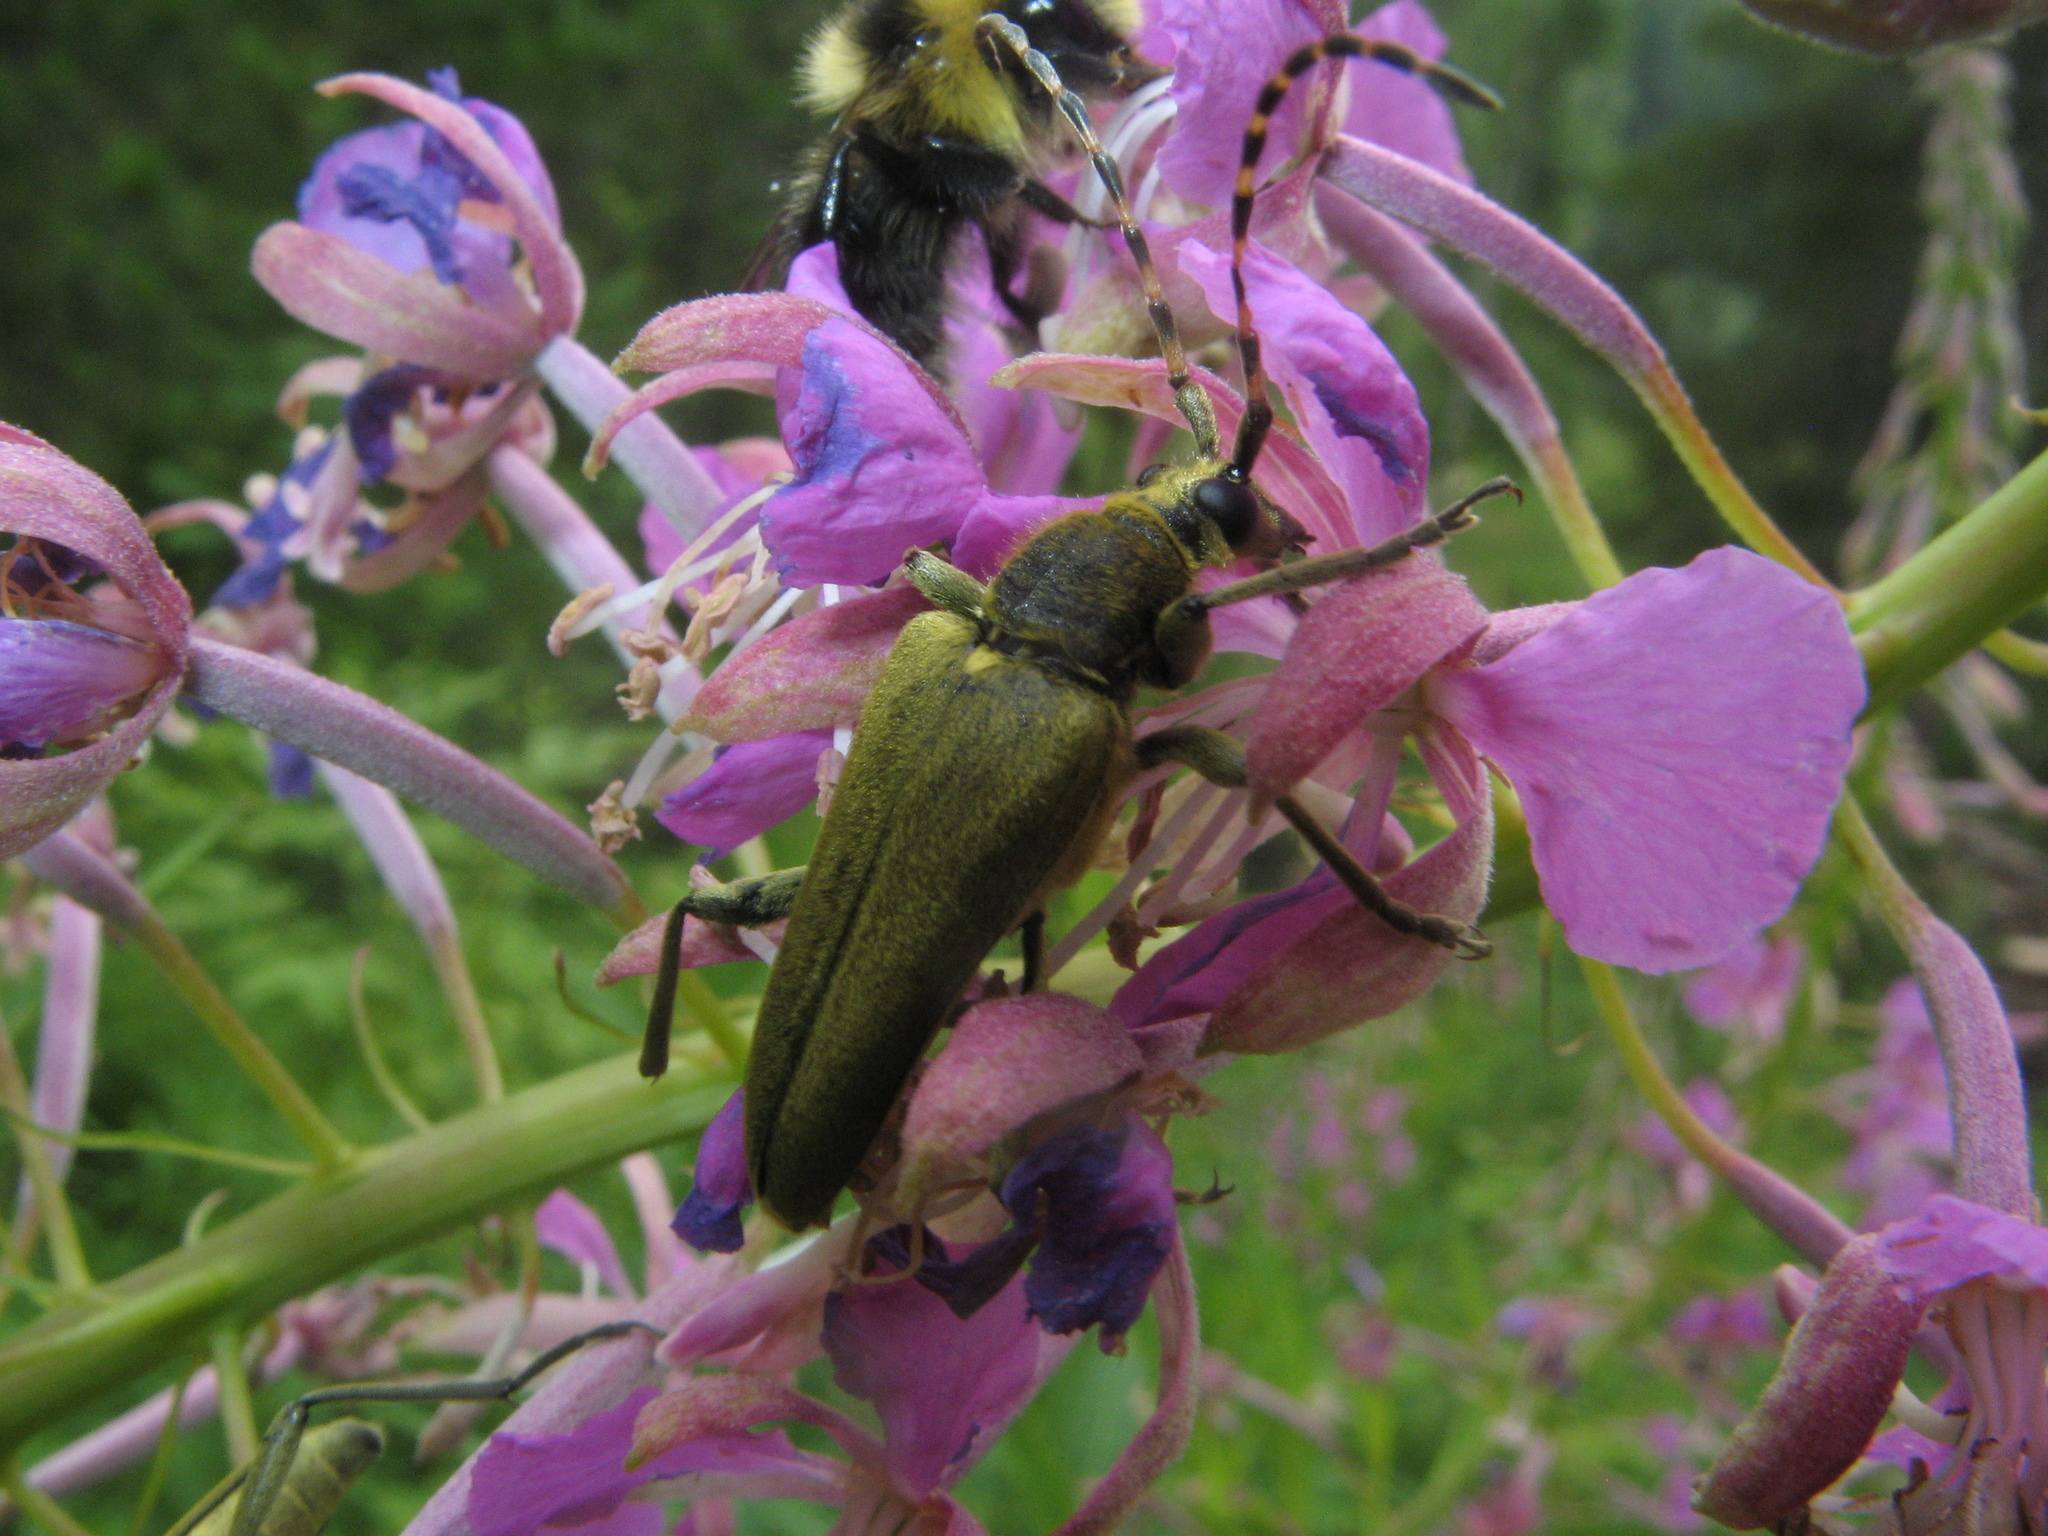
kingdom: Animalia
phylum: Arthropoda
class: Insecta
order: Coleoptera
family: Cerambycidae
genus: Lepturobosca
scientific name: Lepturobosca virens
